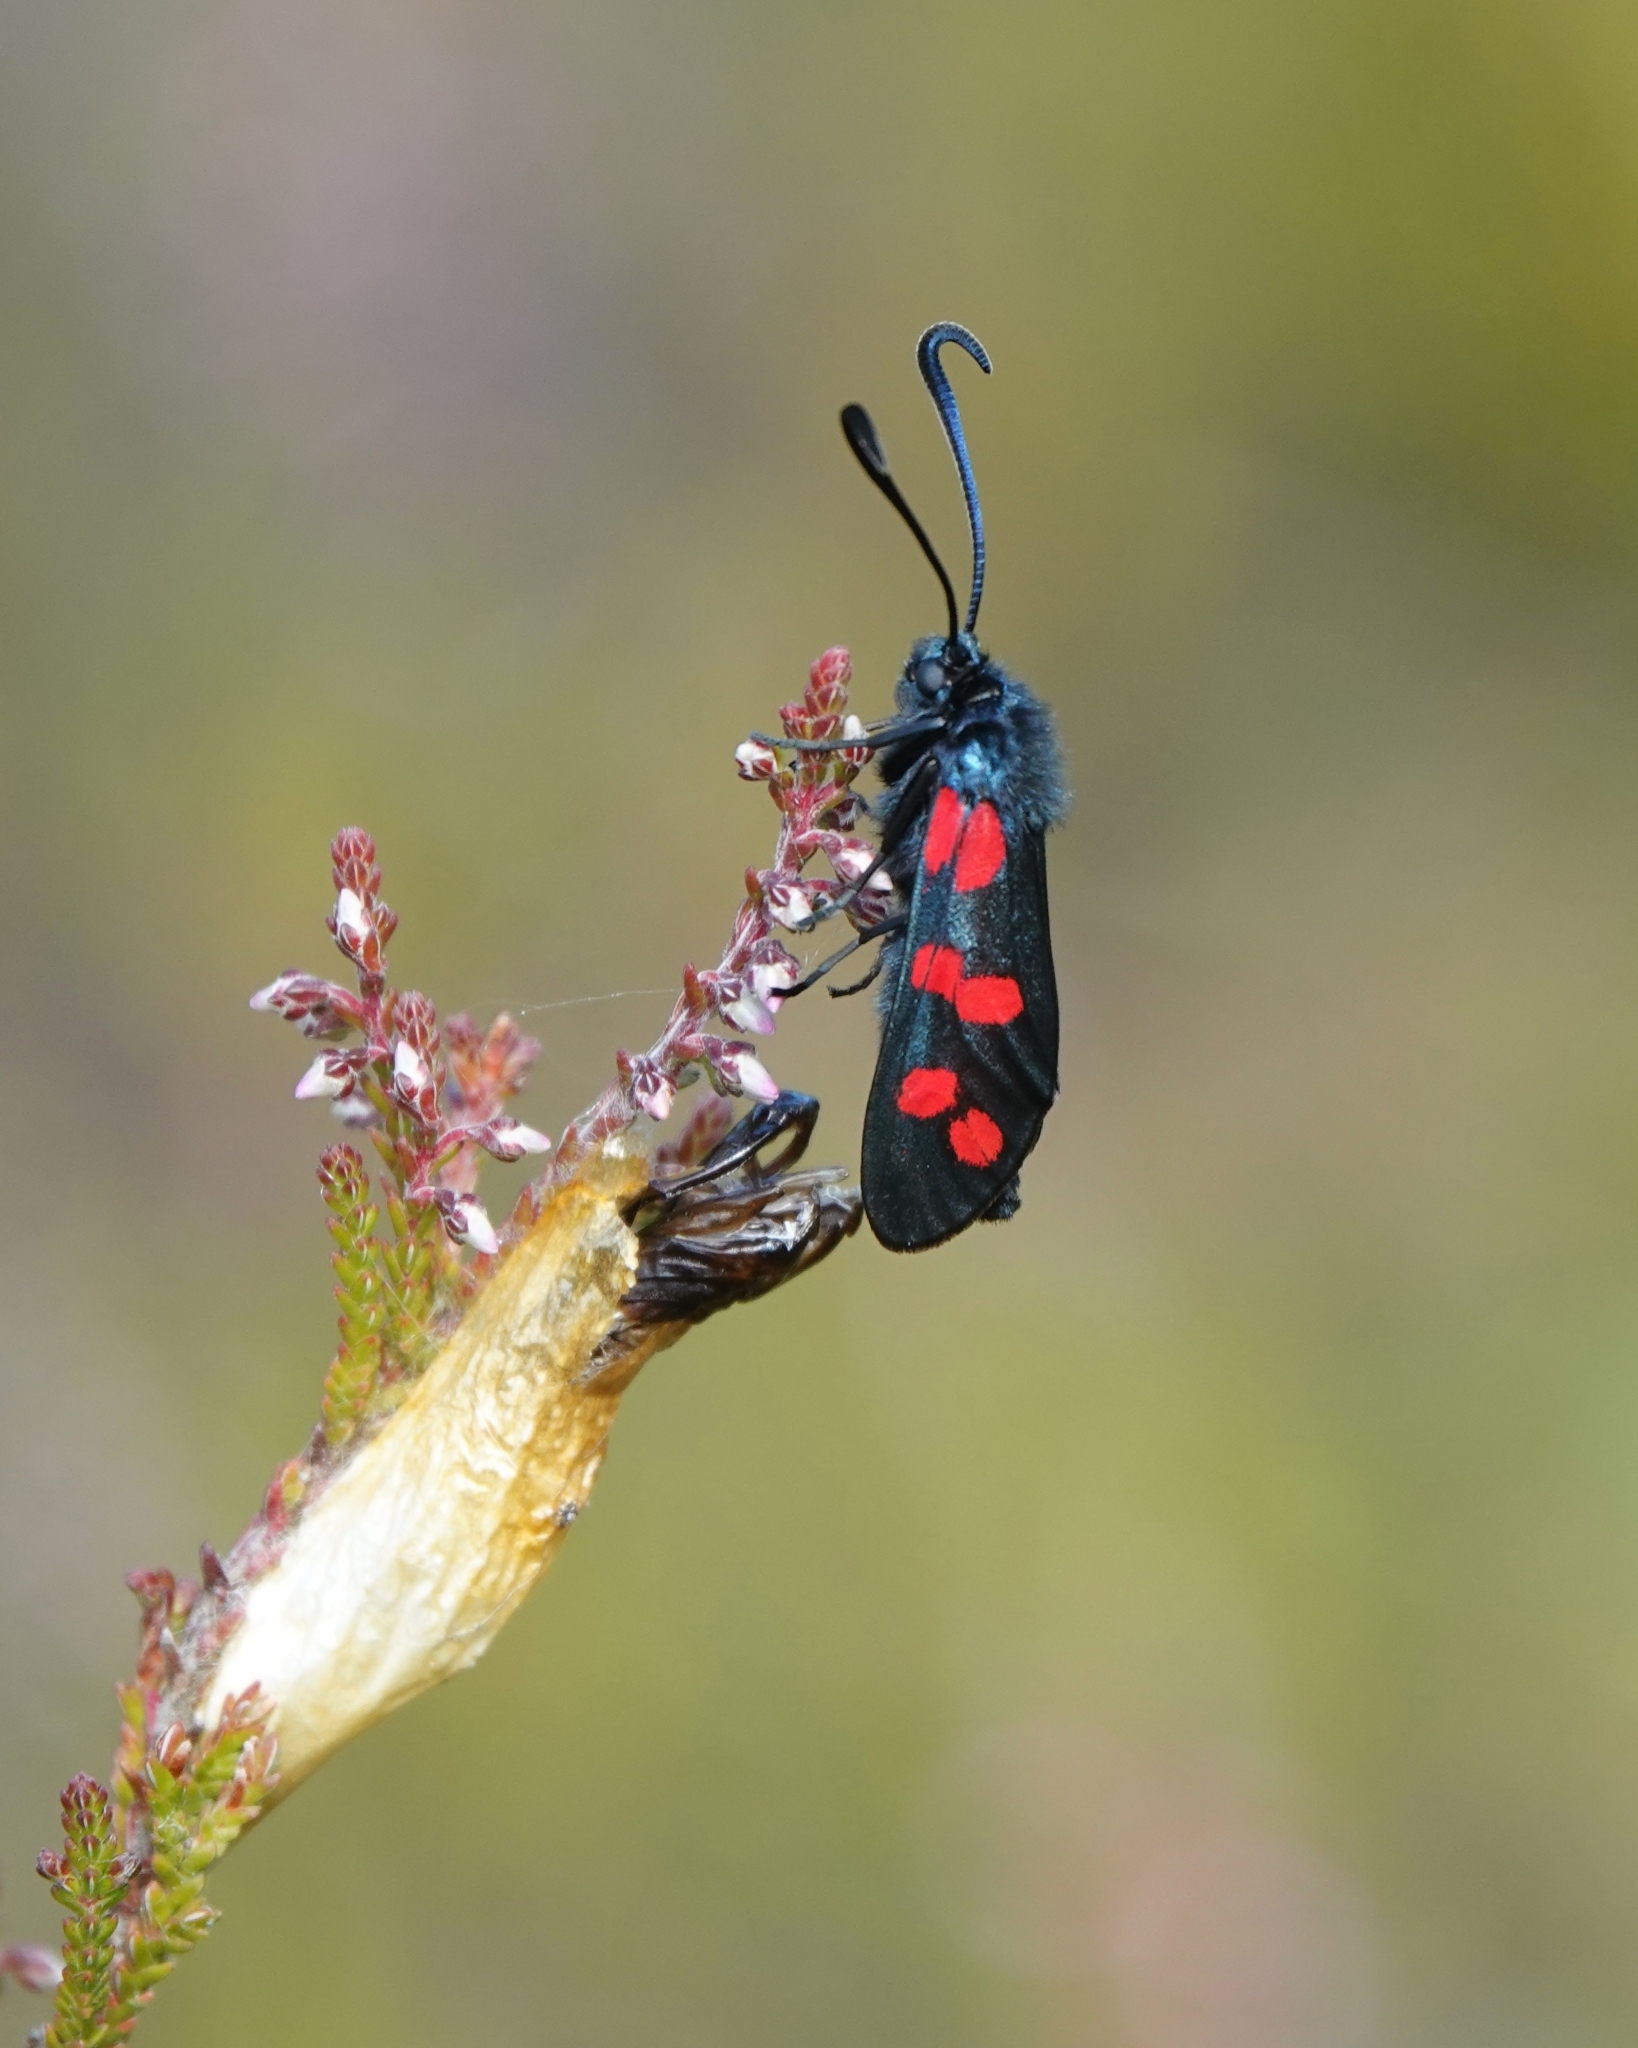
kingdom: Animalia
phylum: Arthropoda
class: Insecta
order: Lepidoptera
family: Zygaenidae
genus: Zygaena
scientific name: Zygaena filipendulae
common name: Six-spot burnet
